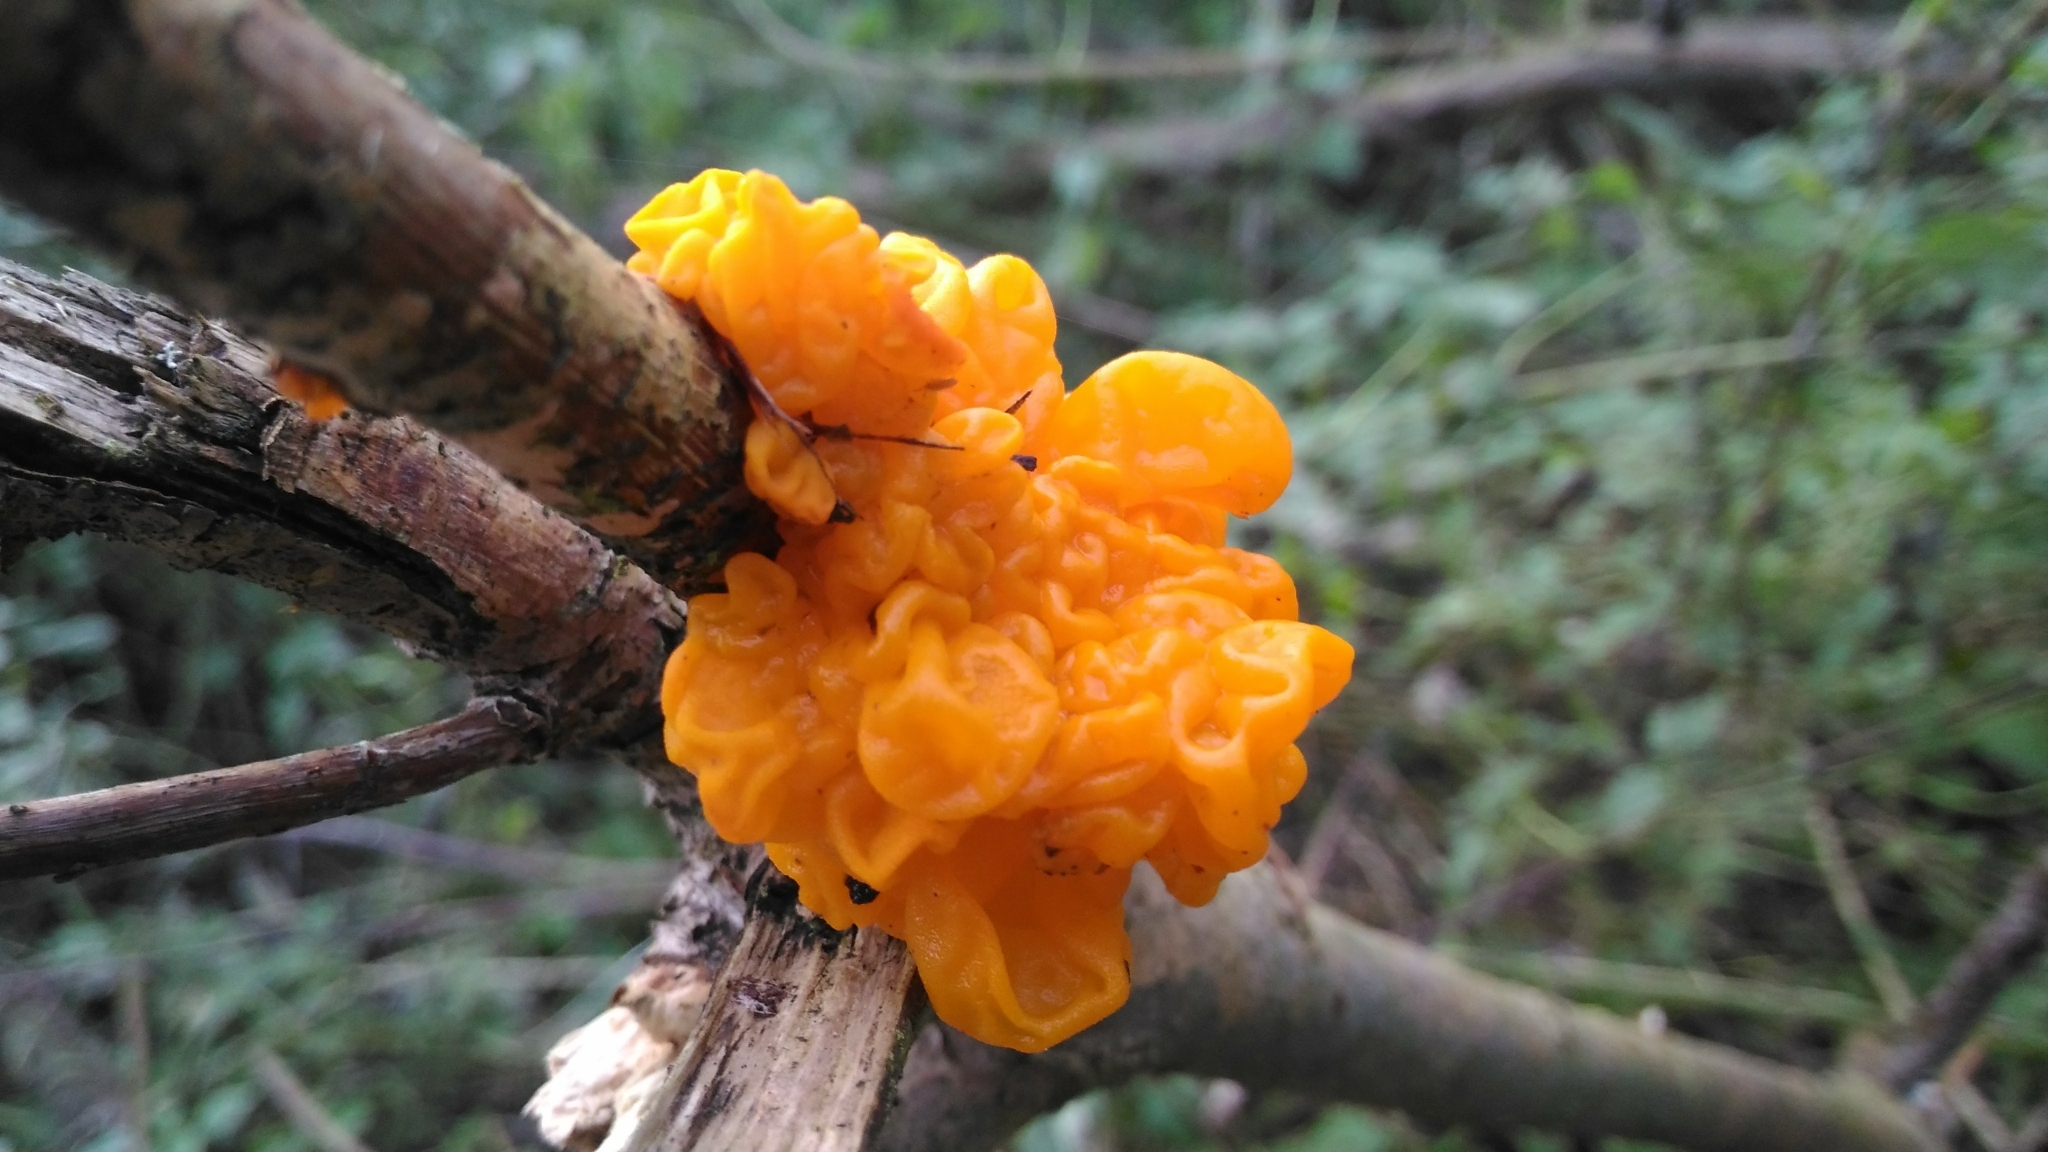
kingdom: Fungi
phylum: Basidiomycota
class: Tremellomycetes
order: Tremellales
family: Tremellaceae
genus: Tremella
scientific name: Tremella mesenterica
